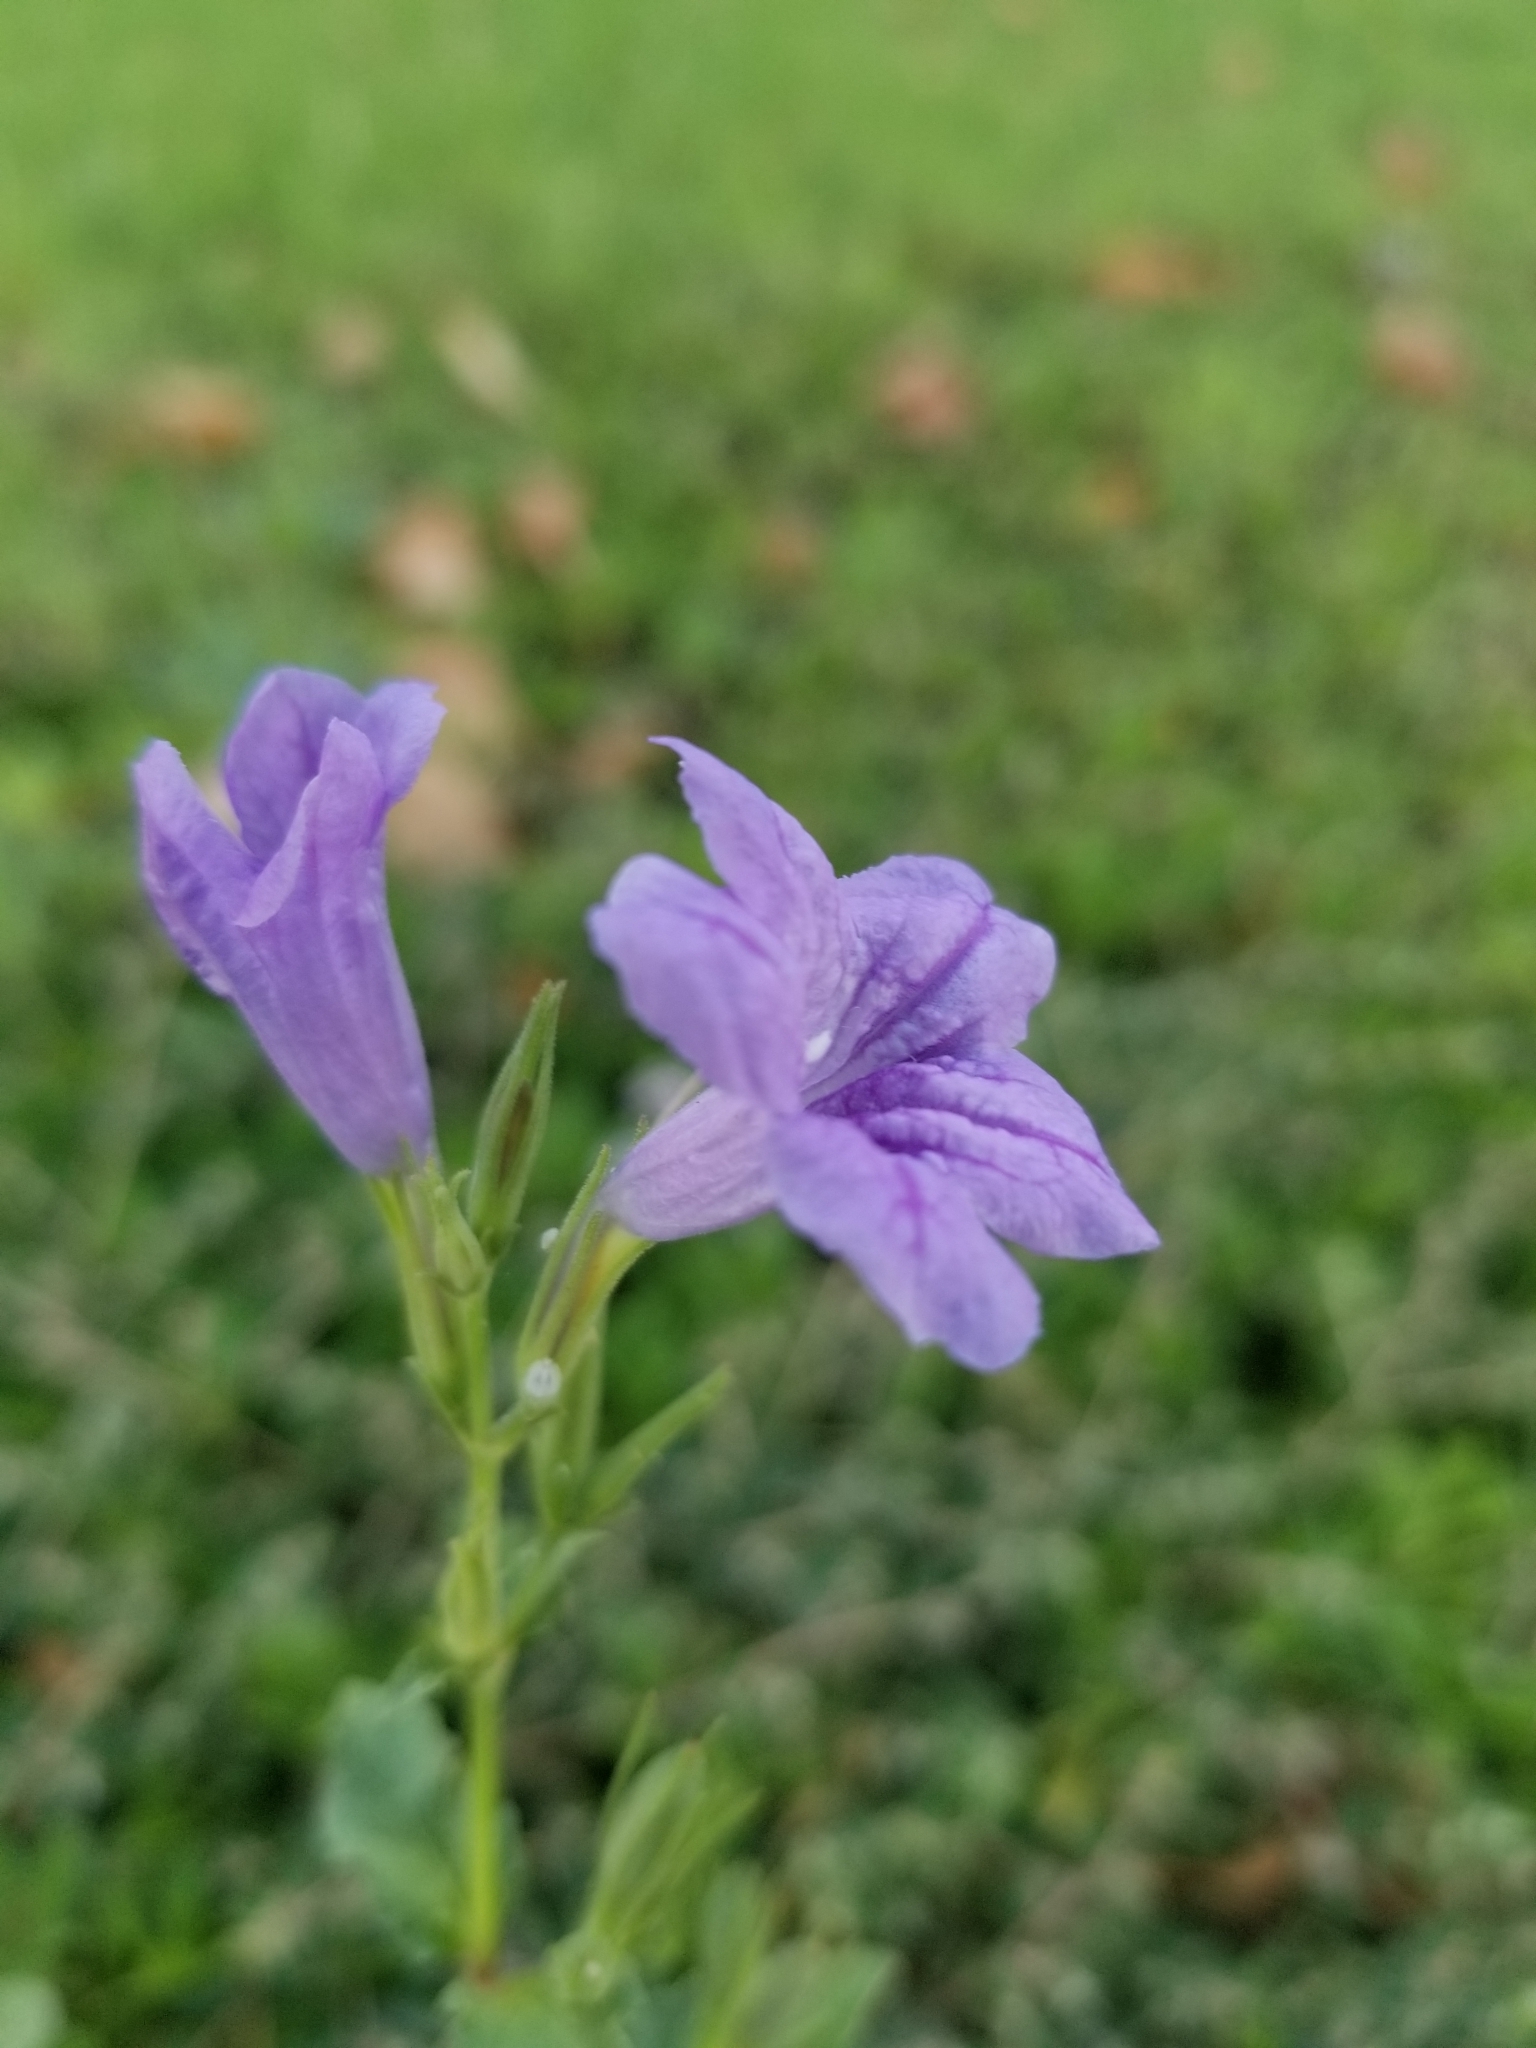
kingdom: Plantae
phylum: Tracheophyta
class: Magnoliopsida
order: Lamiales
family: Acanthaceae
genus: Ruellia
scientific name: Ruellia ciliatiflora
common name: Hairyflower wild petunia
